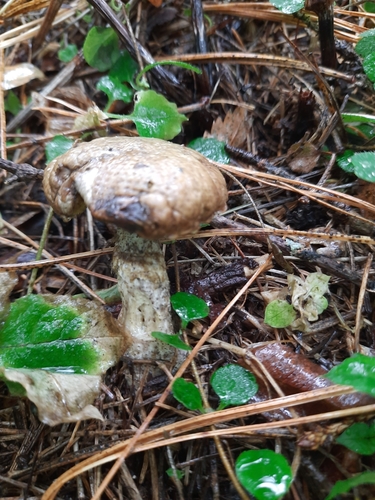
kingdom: Fungi
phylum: Basidiomycota
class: Agaricomycetes
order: Boletales
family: Suillaceae
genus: Suillus
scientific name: Suillus acidus
